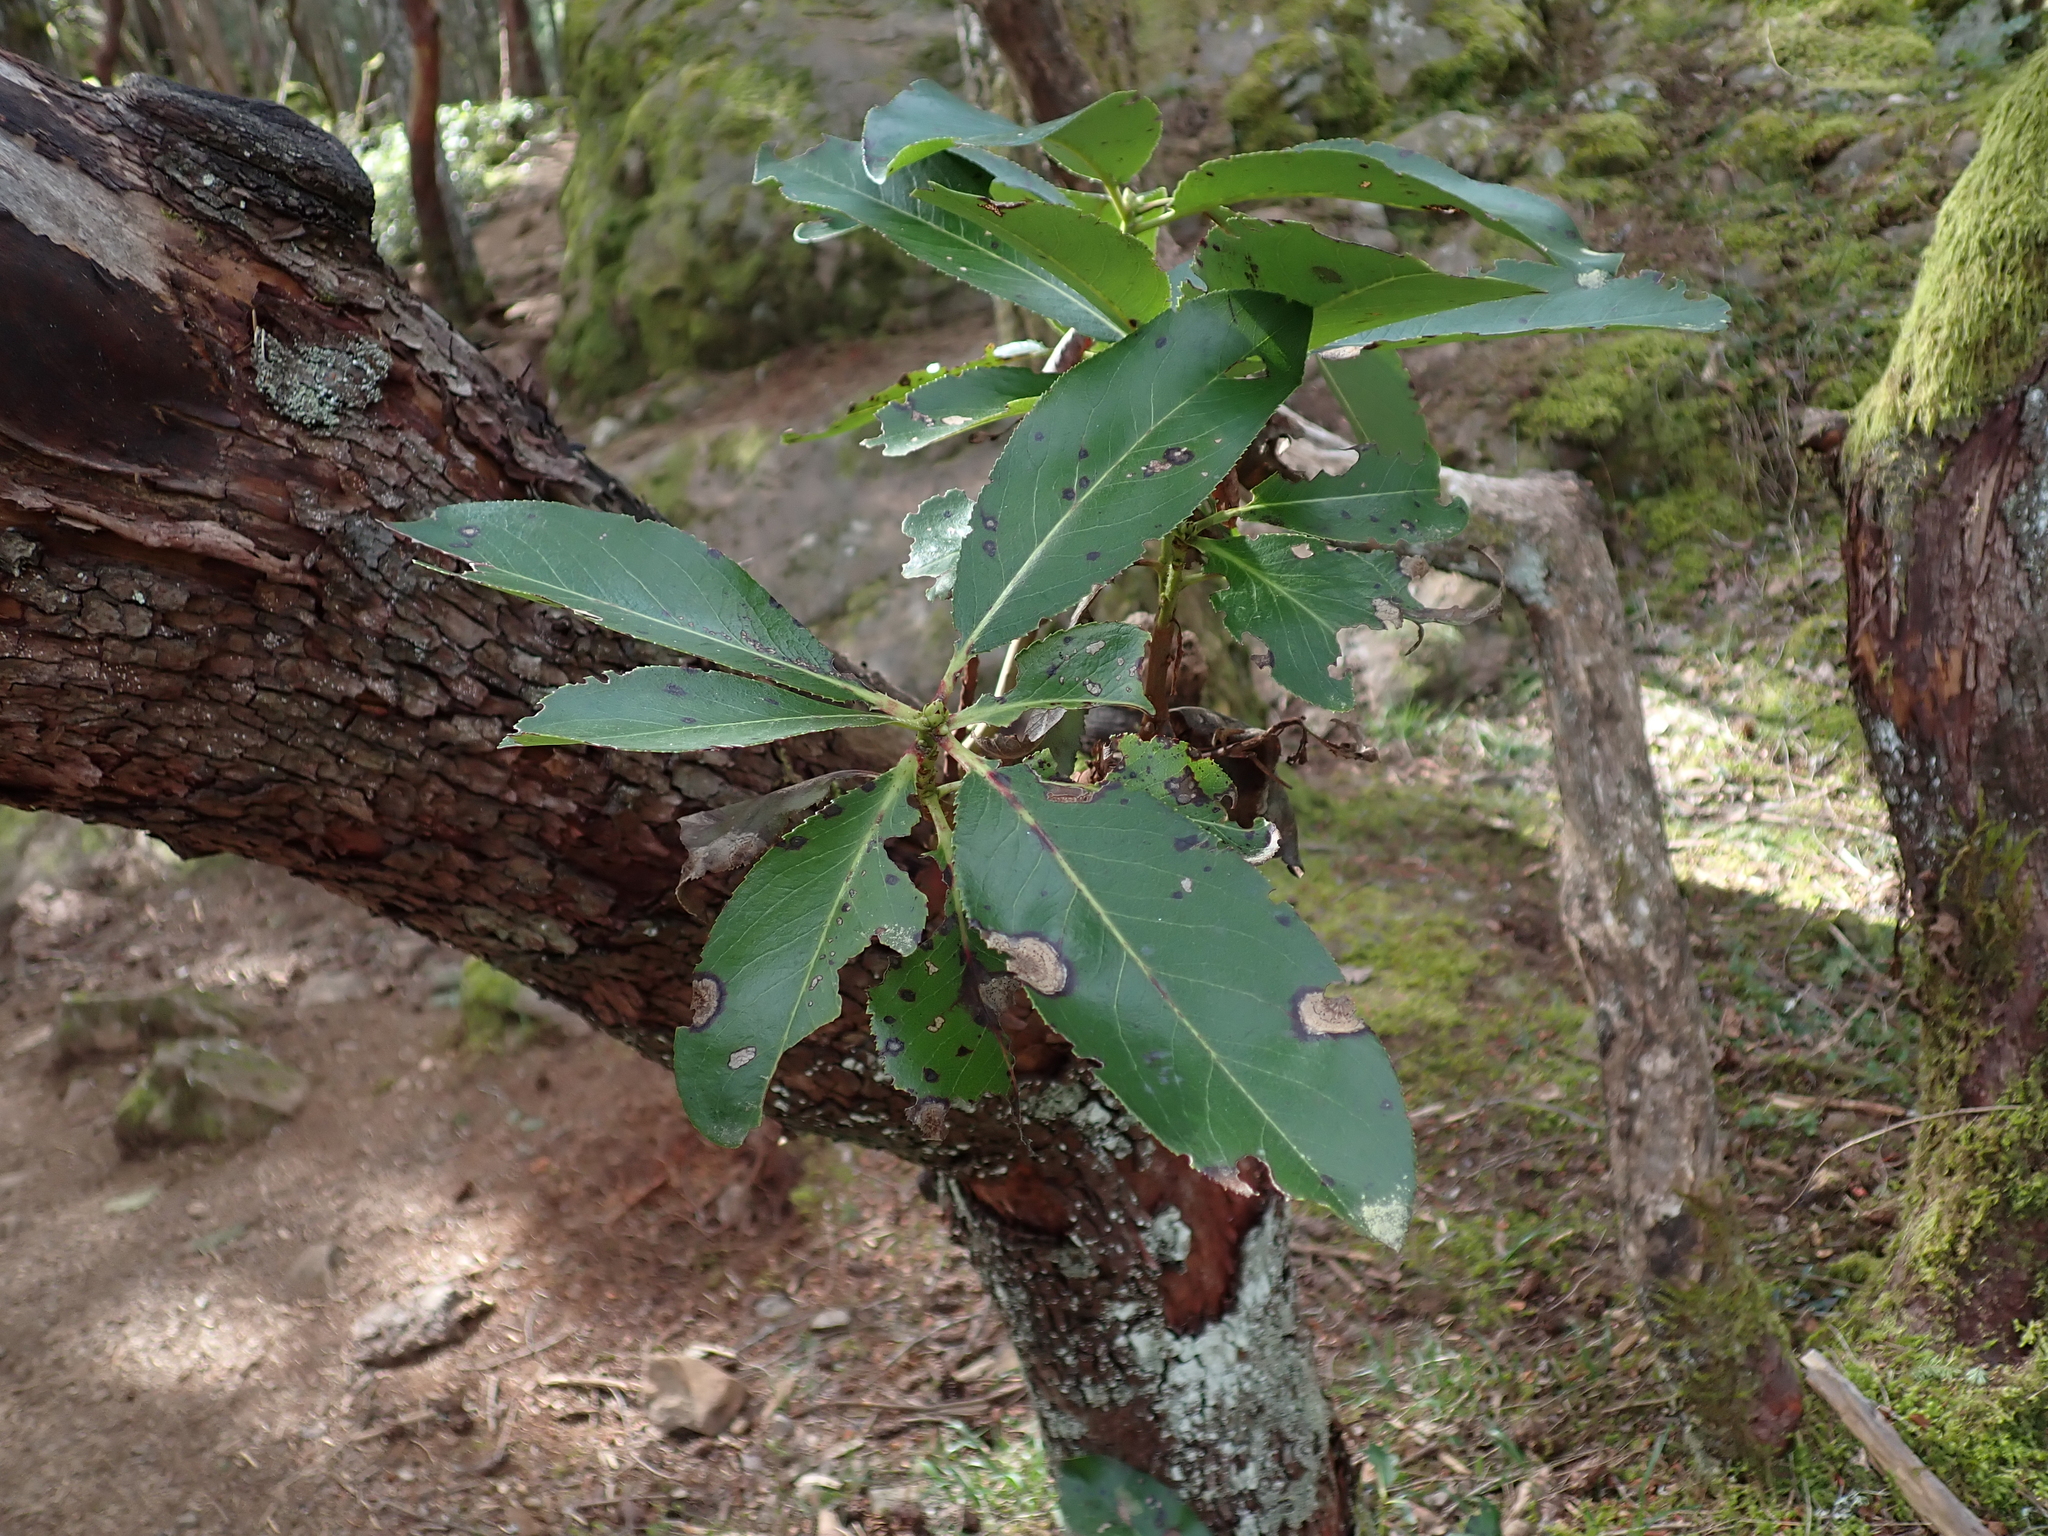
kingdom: Plantae
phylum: Tracheophyta
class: Magnoliopsida
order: Ericales
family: Ericaceae
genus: Arbutus
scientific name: Arbutus menziesii
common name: Pacific madrone
